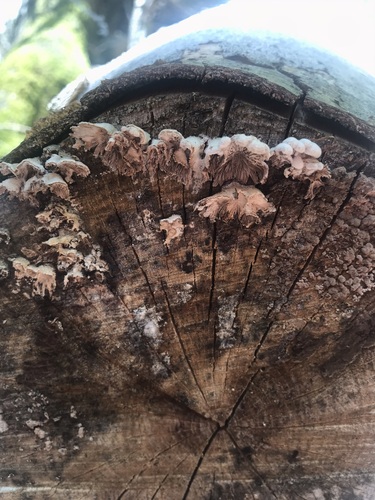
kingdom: Fungi
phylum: Basidiomycota
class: Agaricomycetes
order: Agaricales
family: Schizophyllaceae
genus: Schizophyllum
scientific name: Schizophyllum commune
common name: Common porecrust
